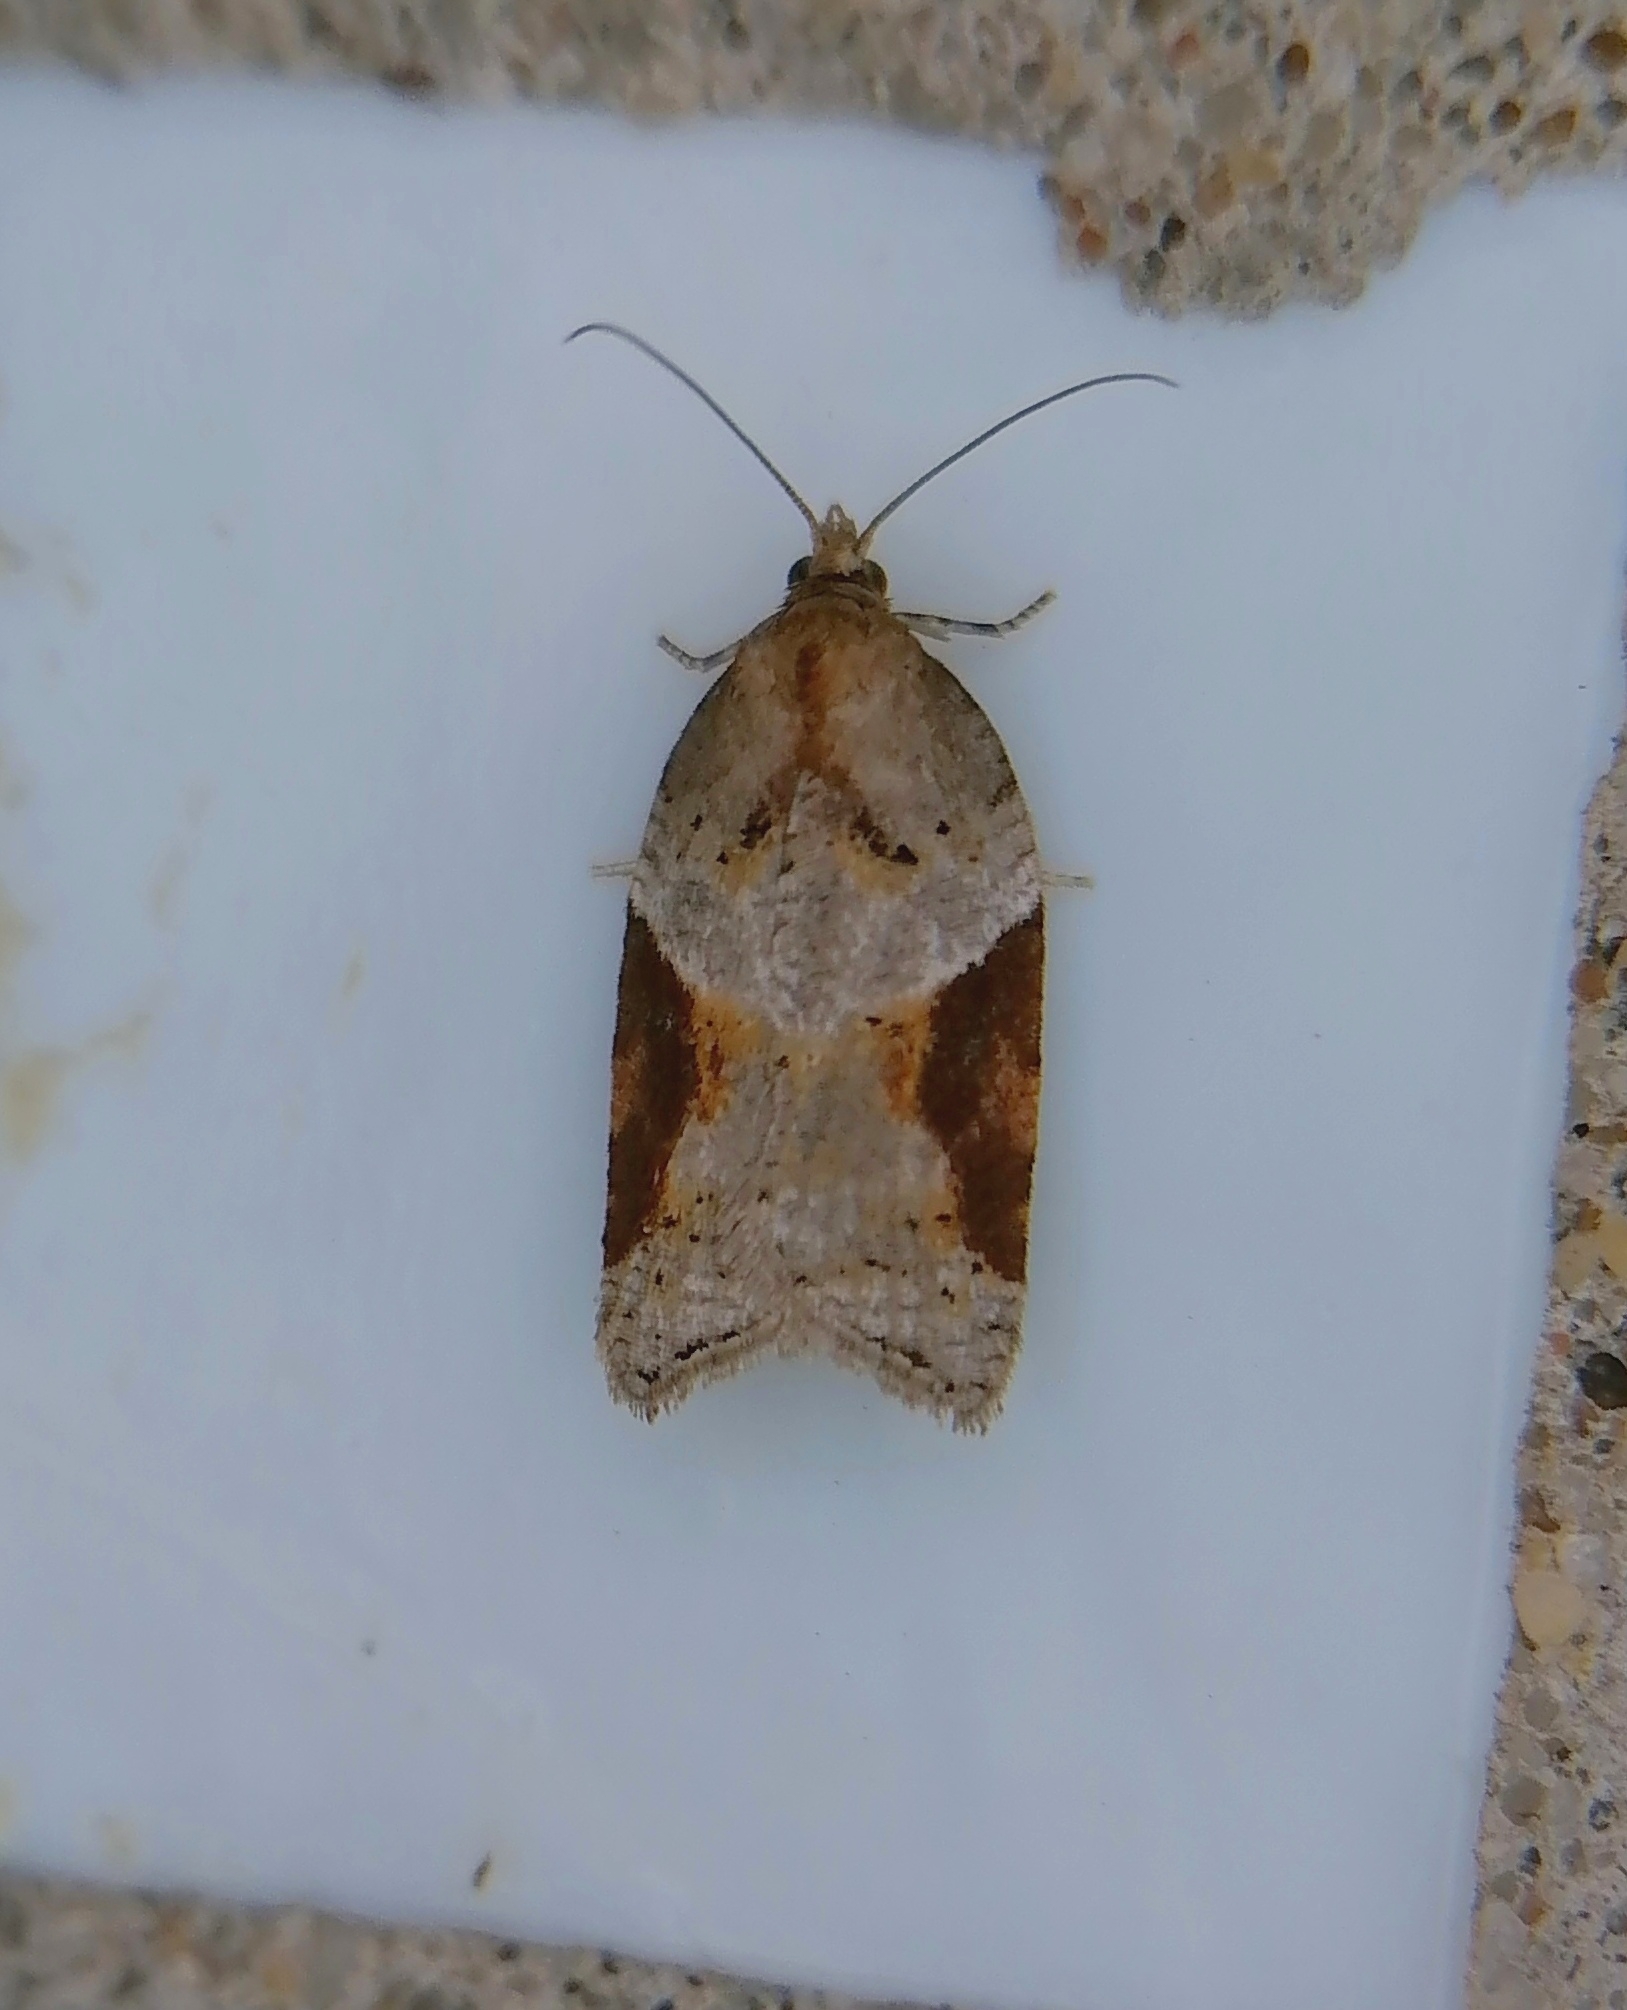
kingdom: Animalia
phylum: Arthropoda
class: Insecta
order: Lepidoptera
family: Tortricidae
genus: Acleris
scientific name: Acleris laterana
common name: Dark-triangle button
